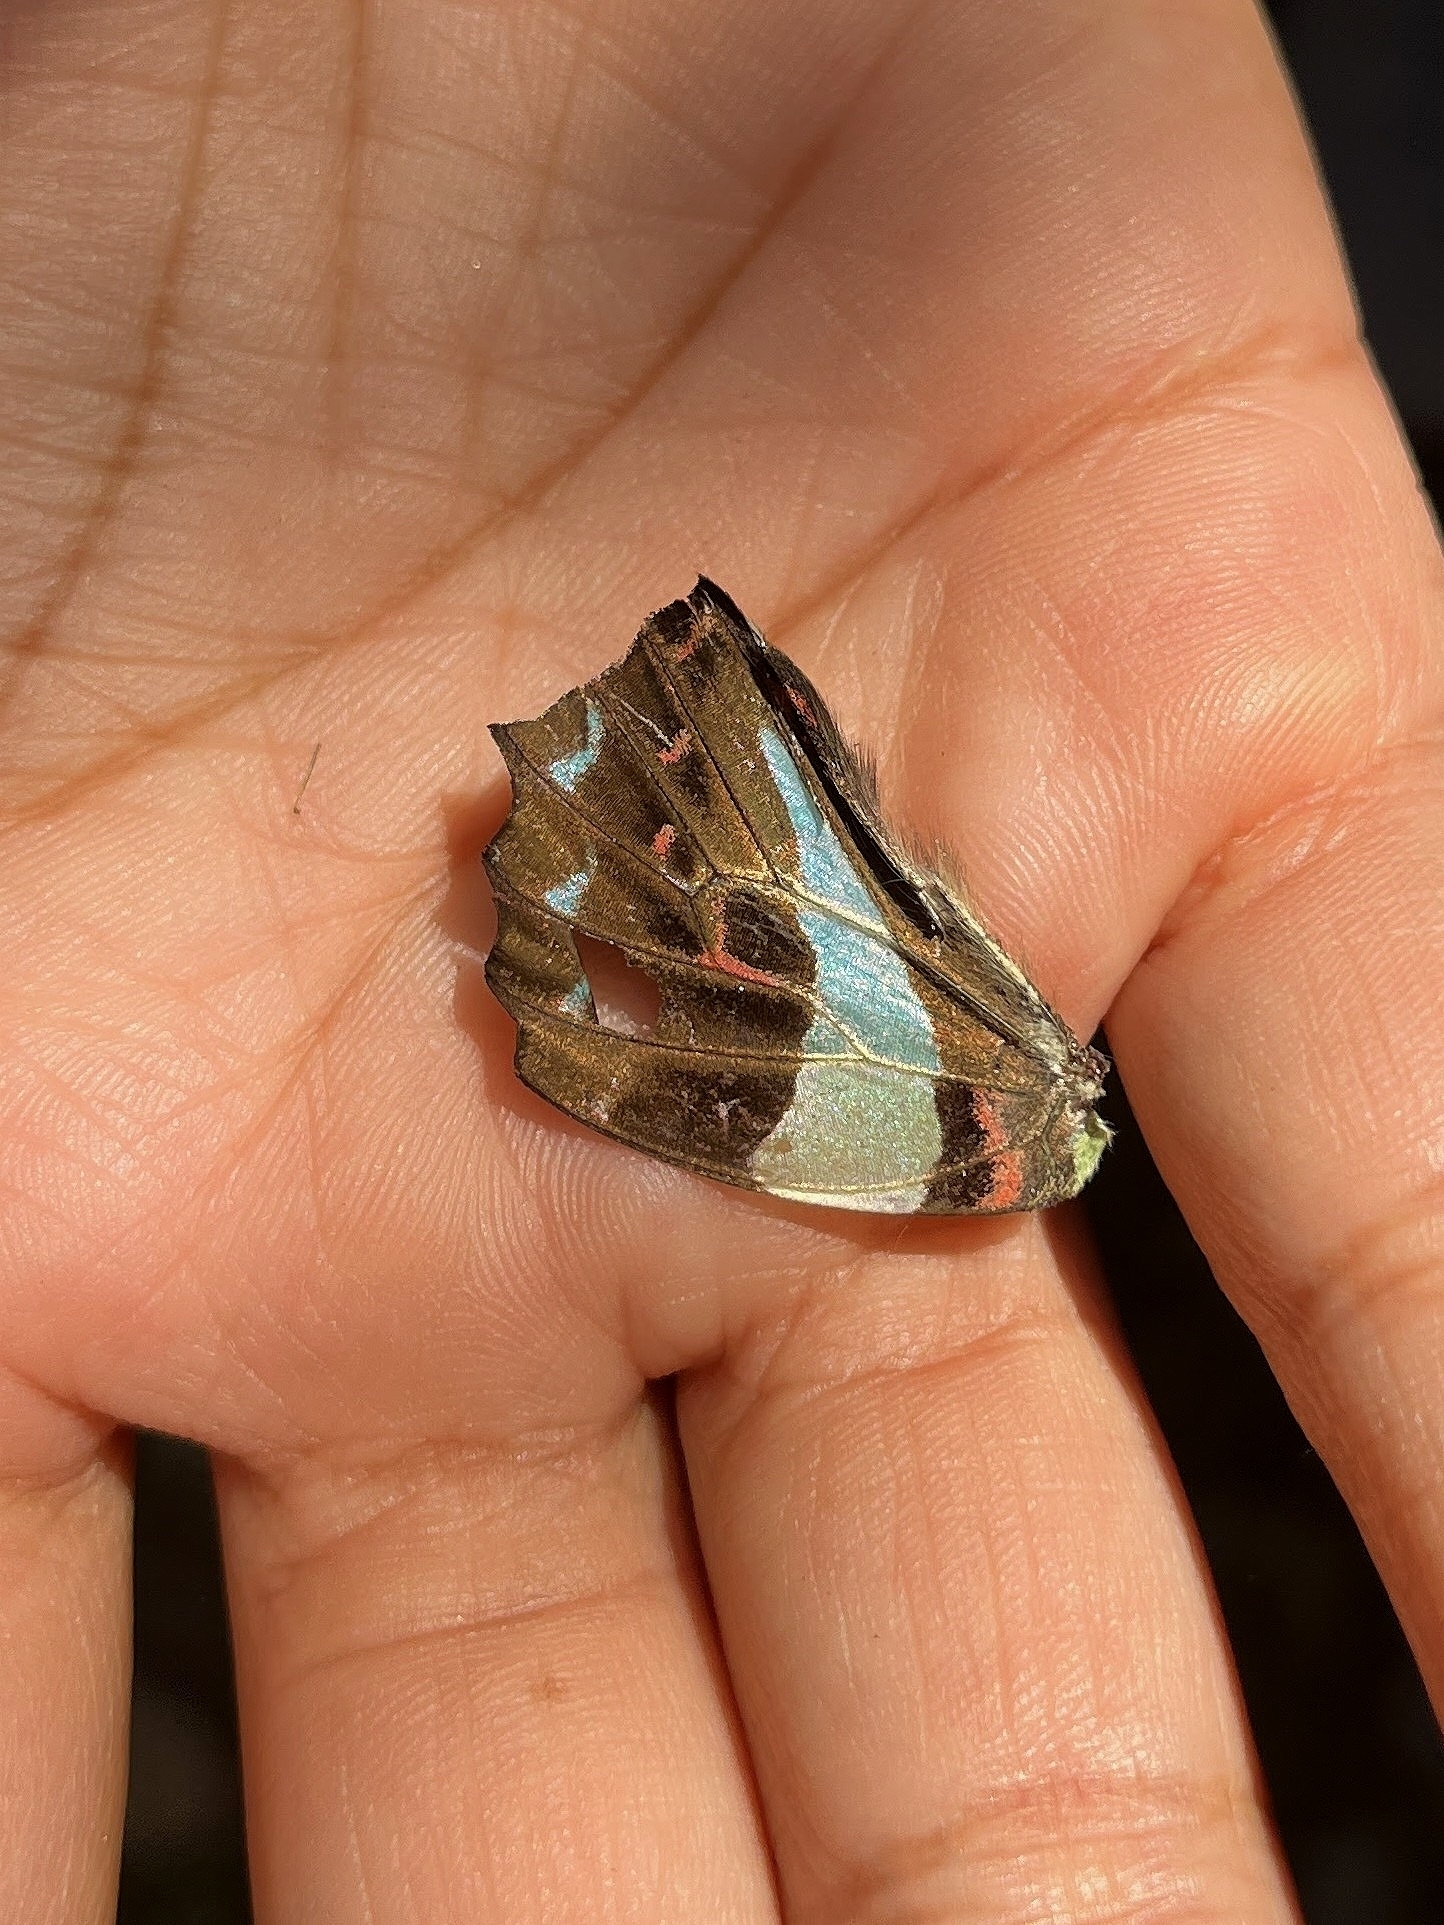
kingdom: Animalia
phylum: Arthropoda
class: Insecta
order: Lepidoptera
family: Papilionidae
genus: Graphium
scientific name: Graphium
